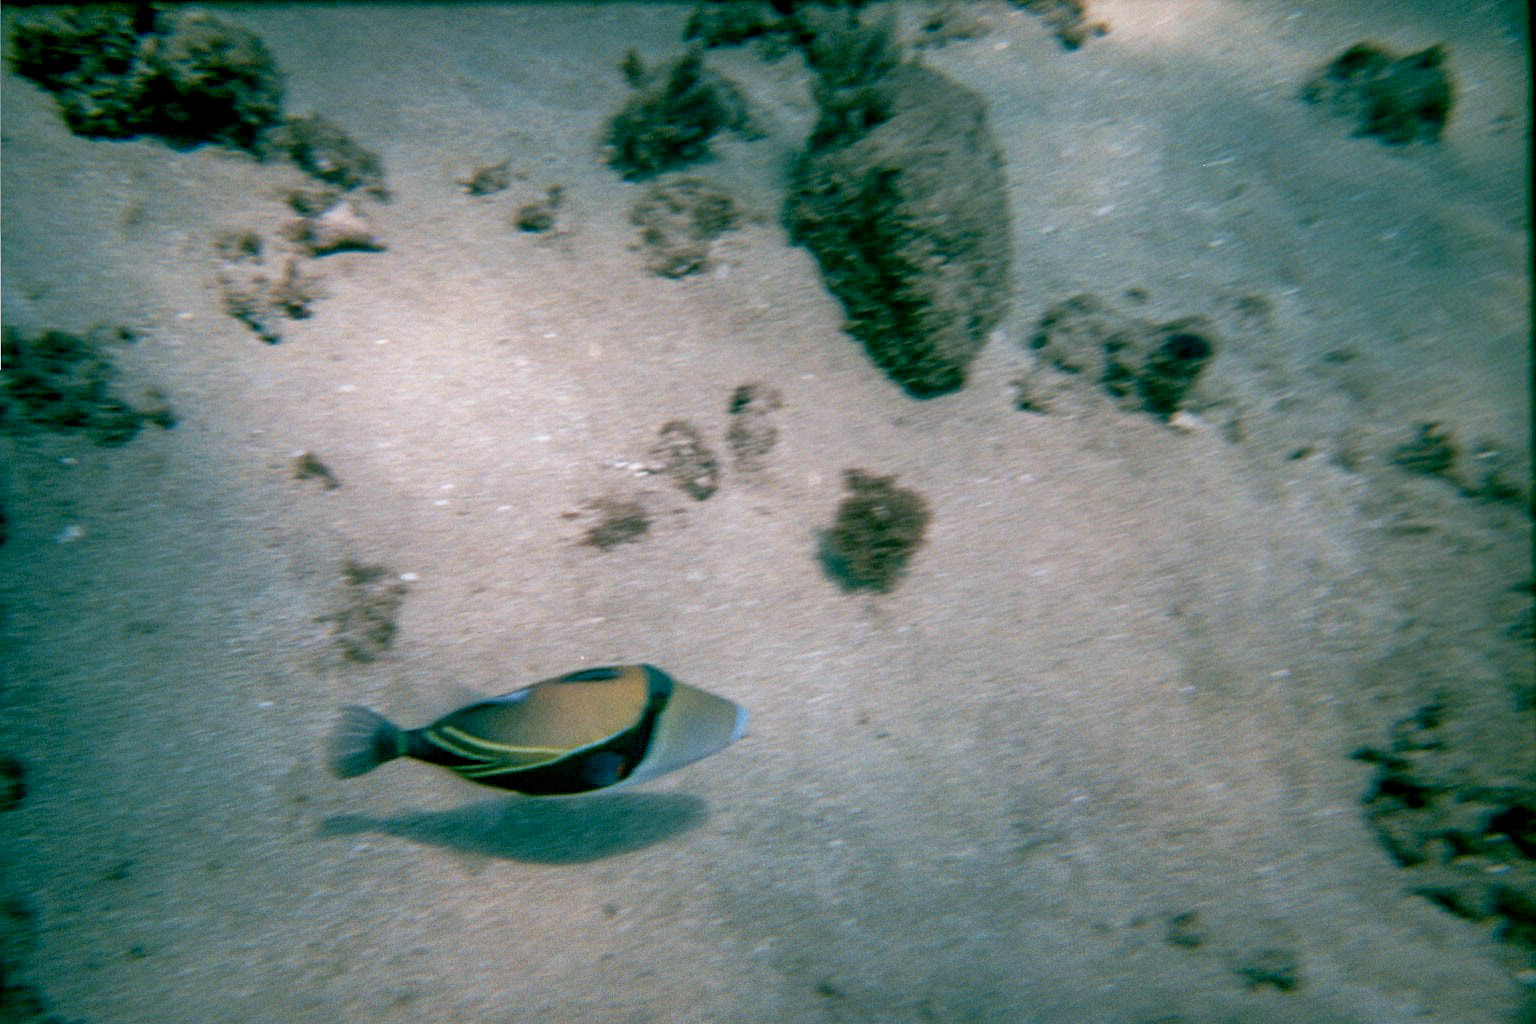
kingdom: Animalia
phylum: Chordata
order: Tetraodontiformes
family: Balistidae
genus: Rhinecanthus
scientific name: Rhinecanthus rectangulus
